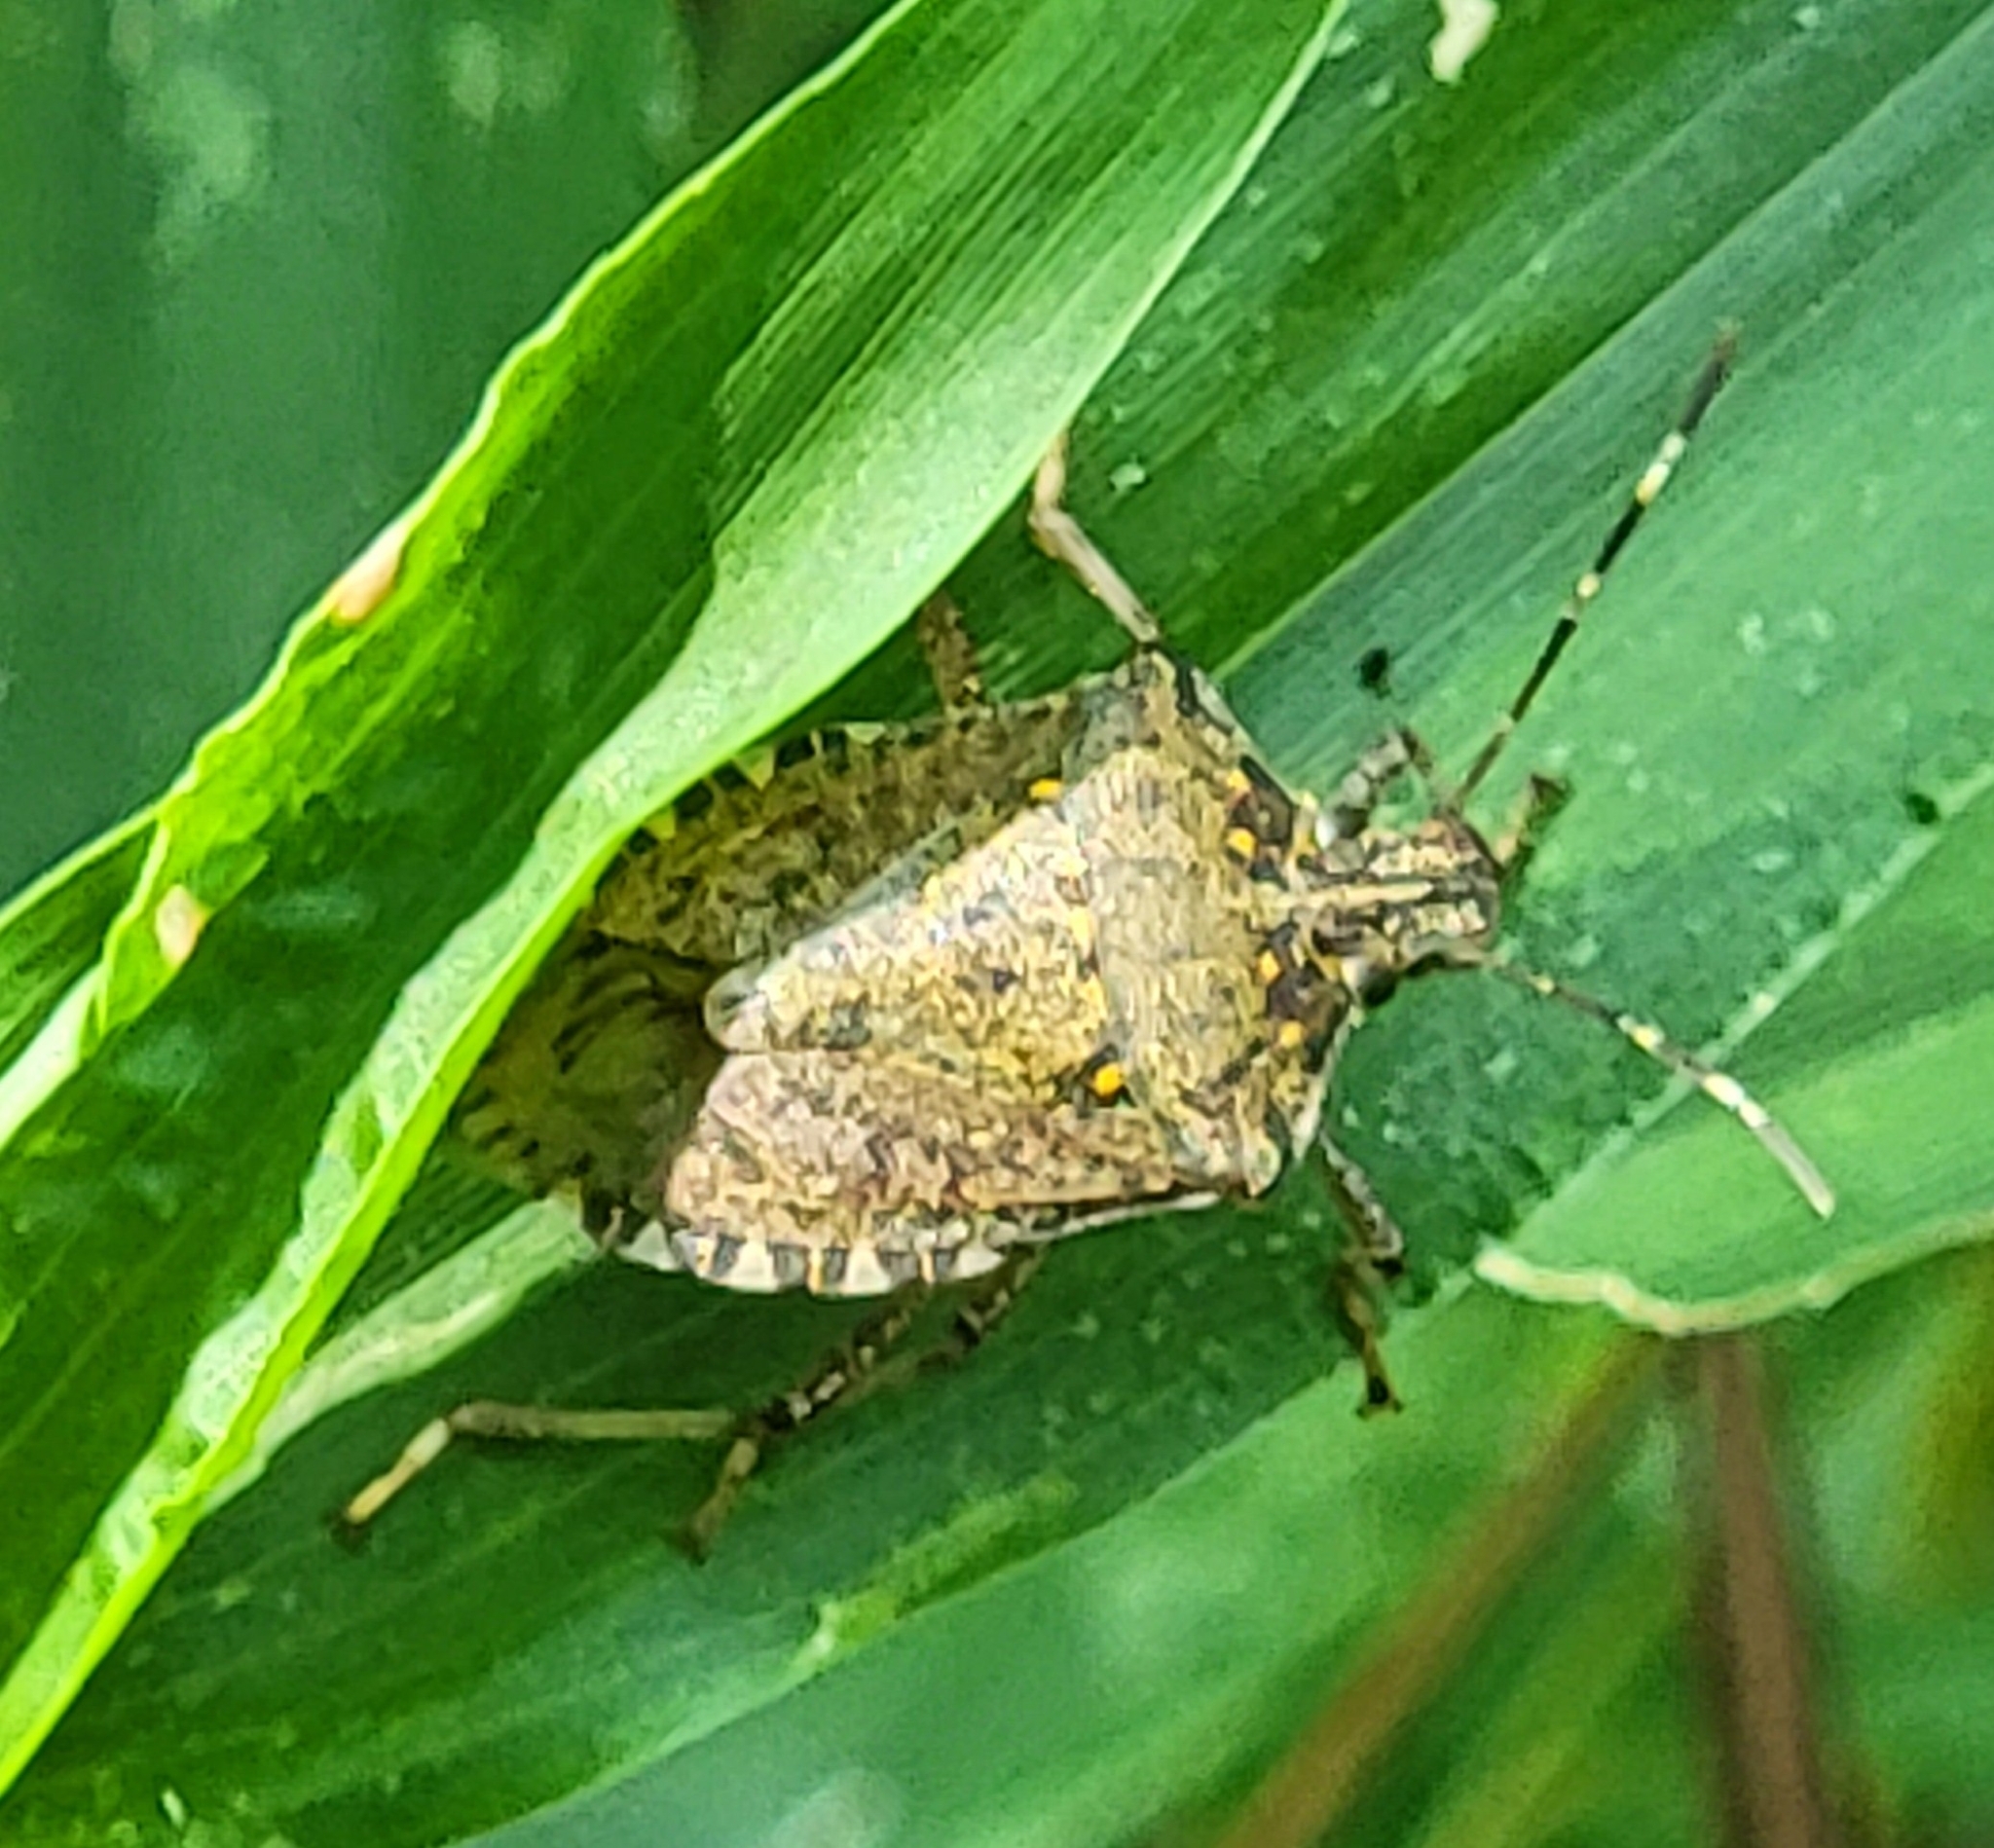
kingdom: Animalia
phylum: Arthropoda
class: Insecta
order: Hemiptera
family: Pentatomidae
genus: Halyomorpha
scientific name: Halyomorpha halys
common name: Brown marmorated stink bug
